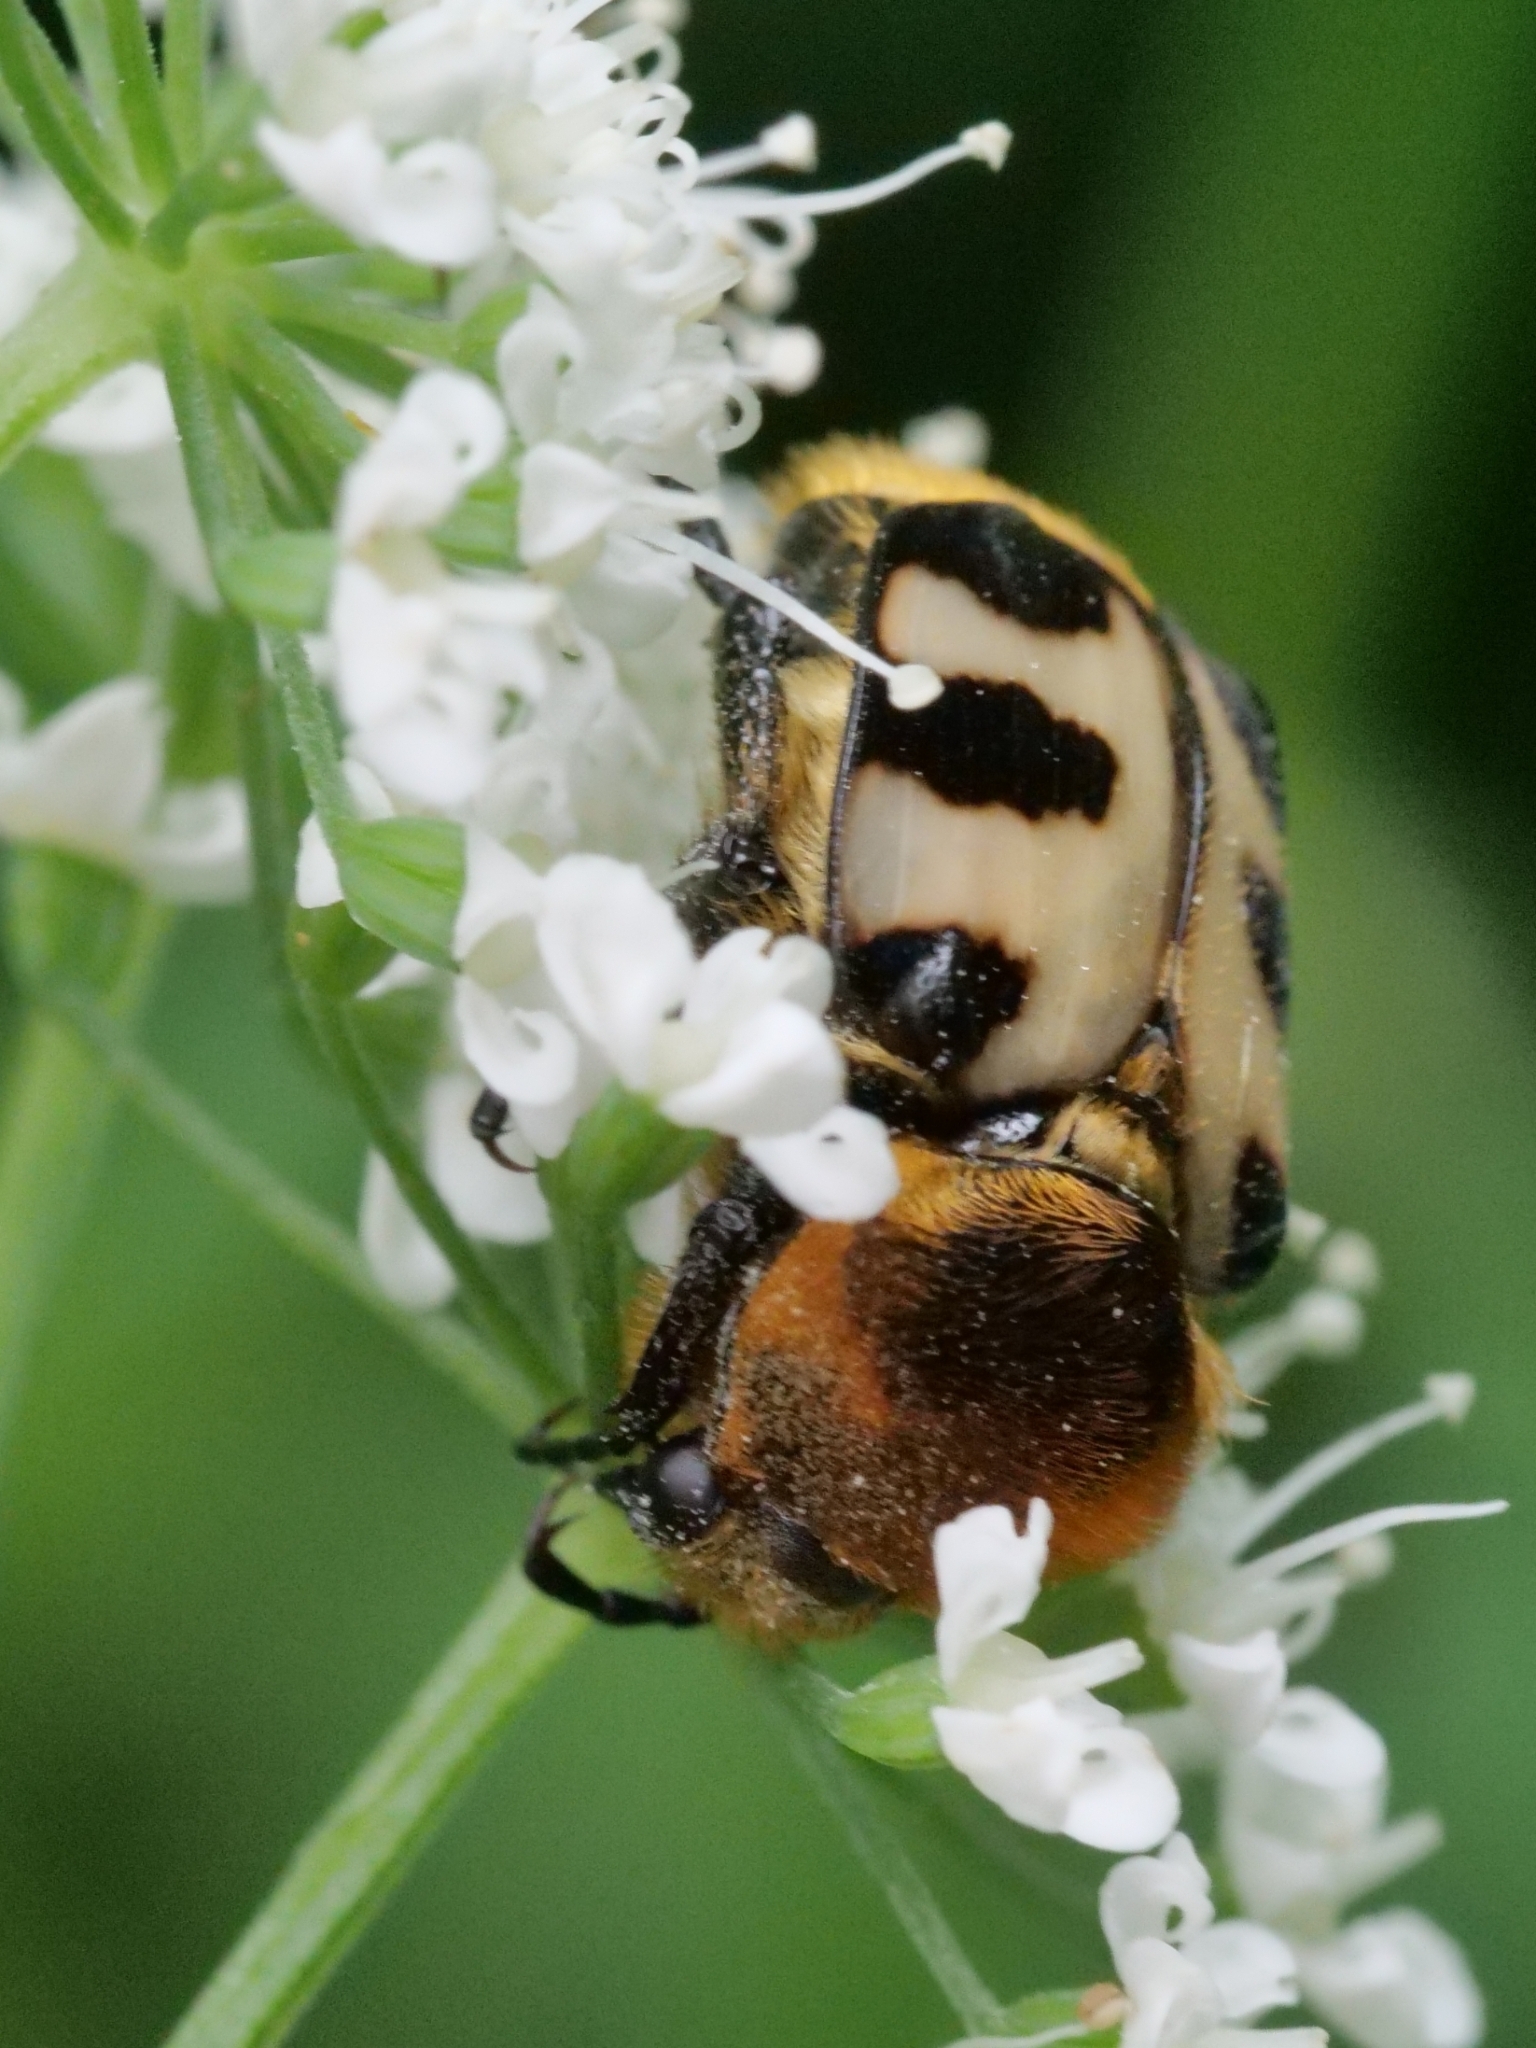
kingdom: Animalia
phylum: Arthropoda
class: Insecta
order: Coleoptera
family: Scarabaeidae
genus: Trichius
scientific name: Trichius gallicus
